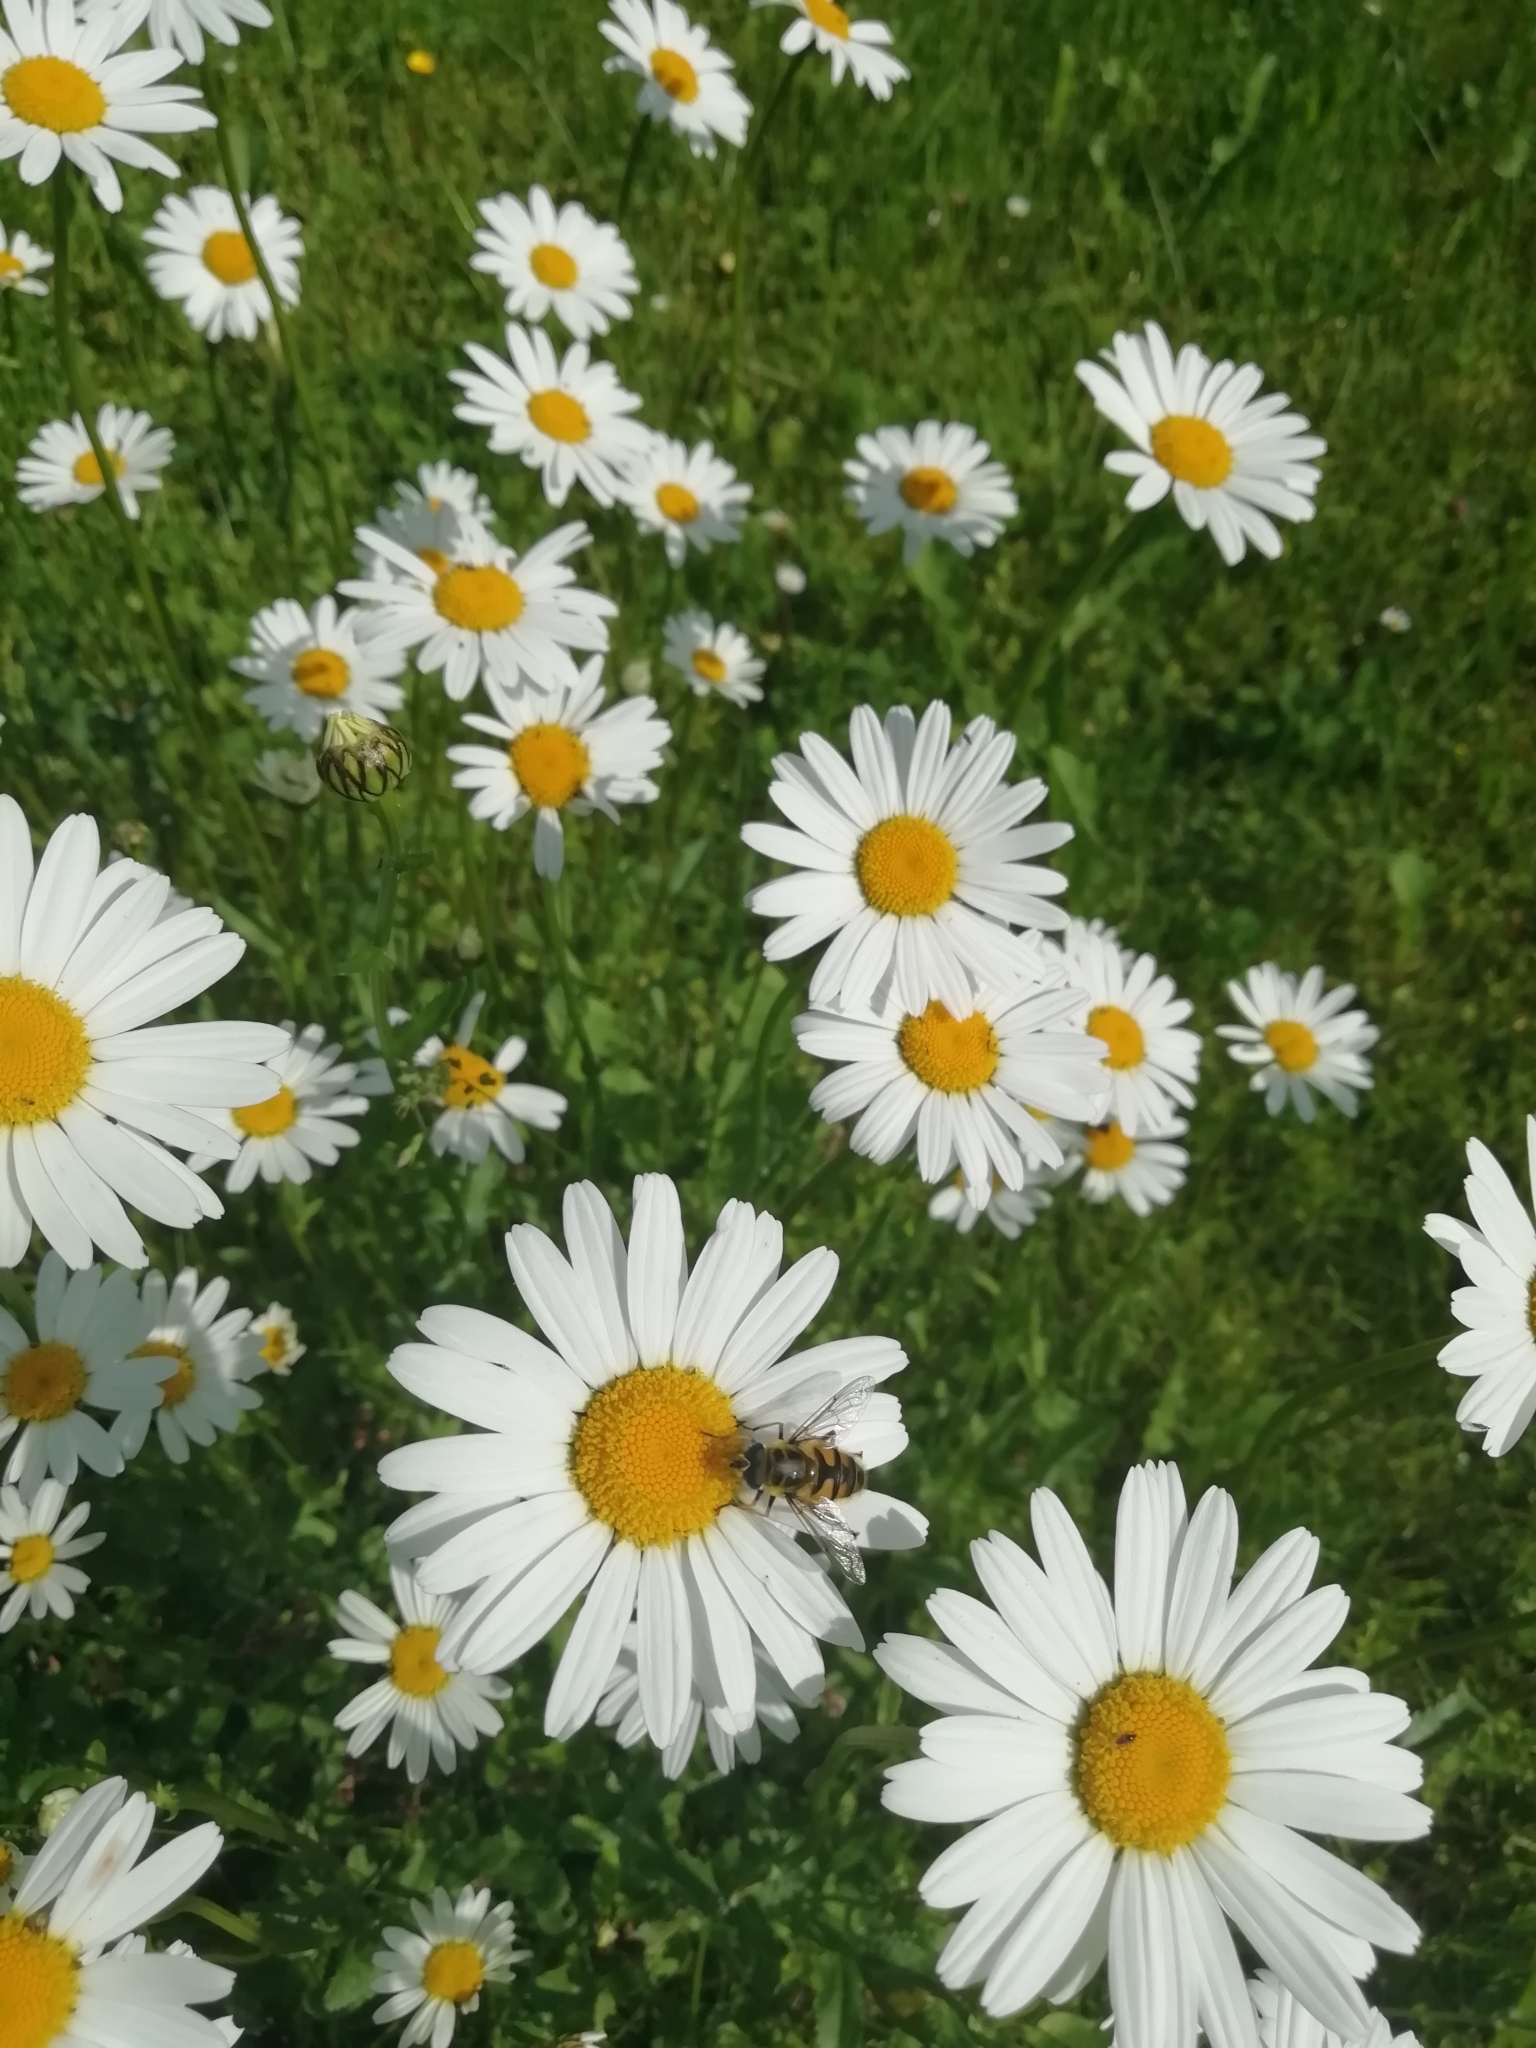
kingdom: Animalia
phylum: Arthropoda
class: Insecta
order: Diptera
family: Syrphidae
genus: Myathropa
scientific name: Myathropa florea
